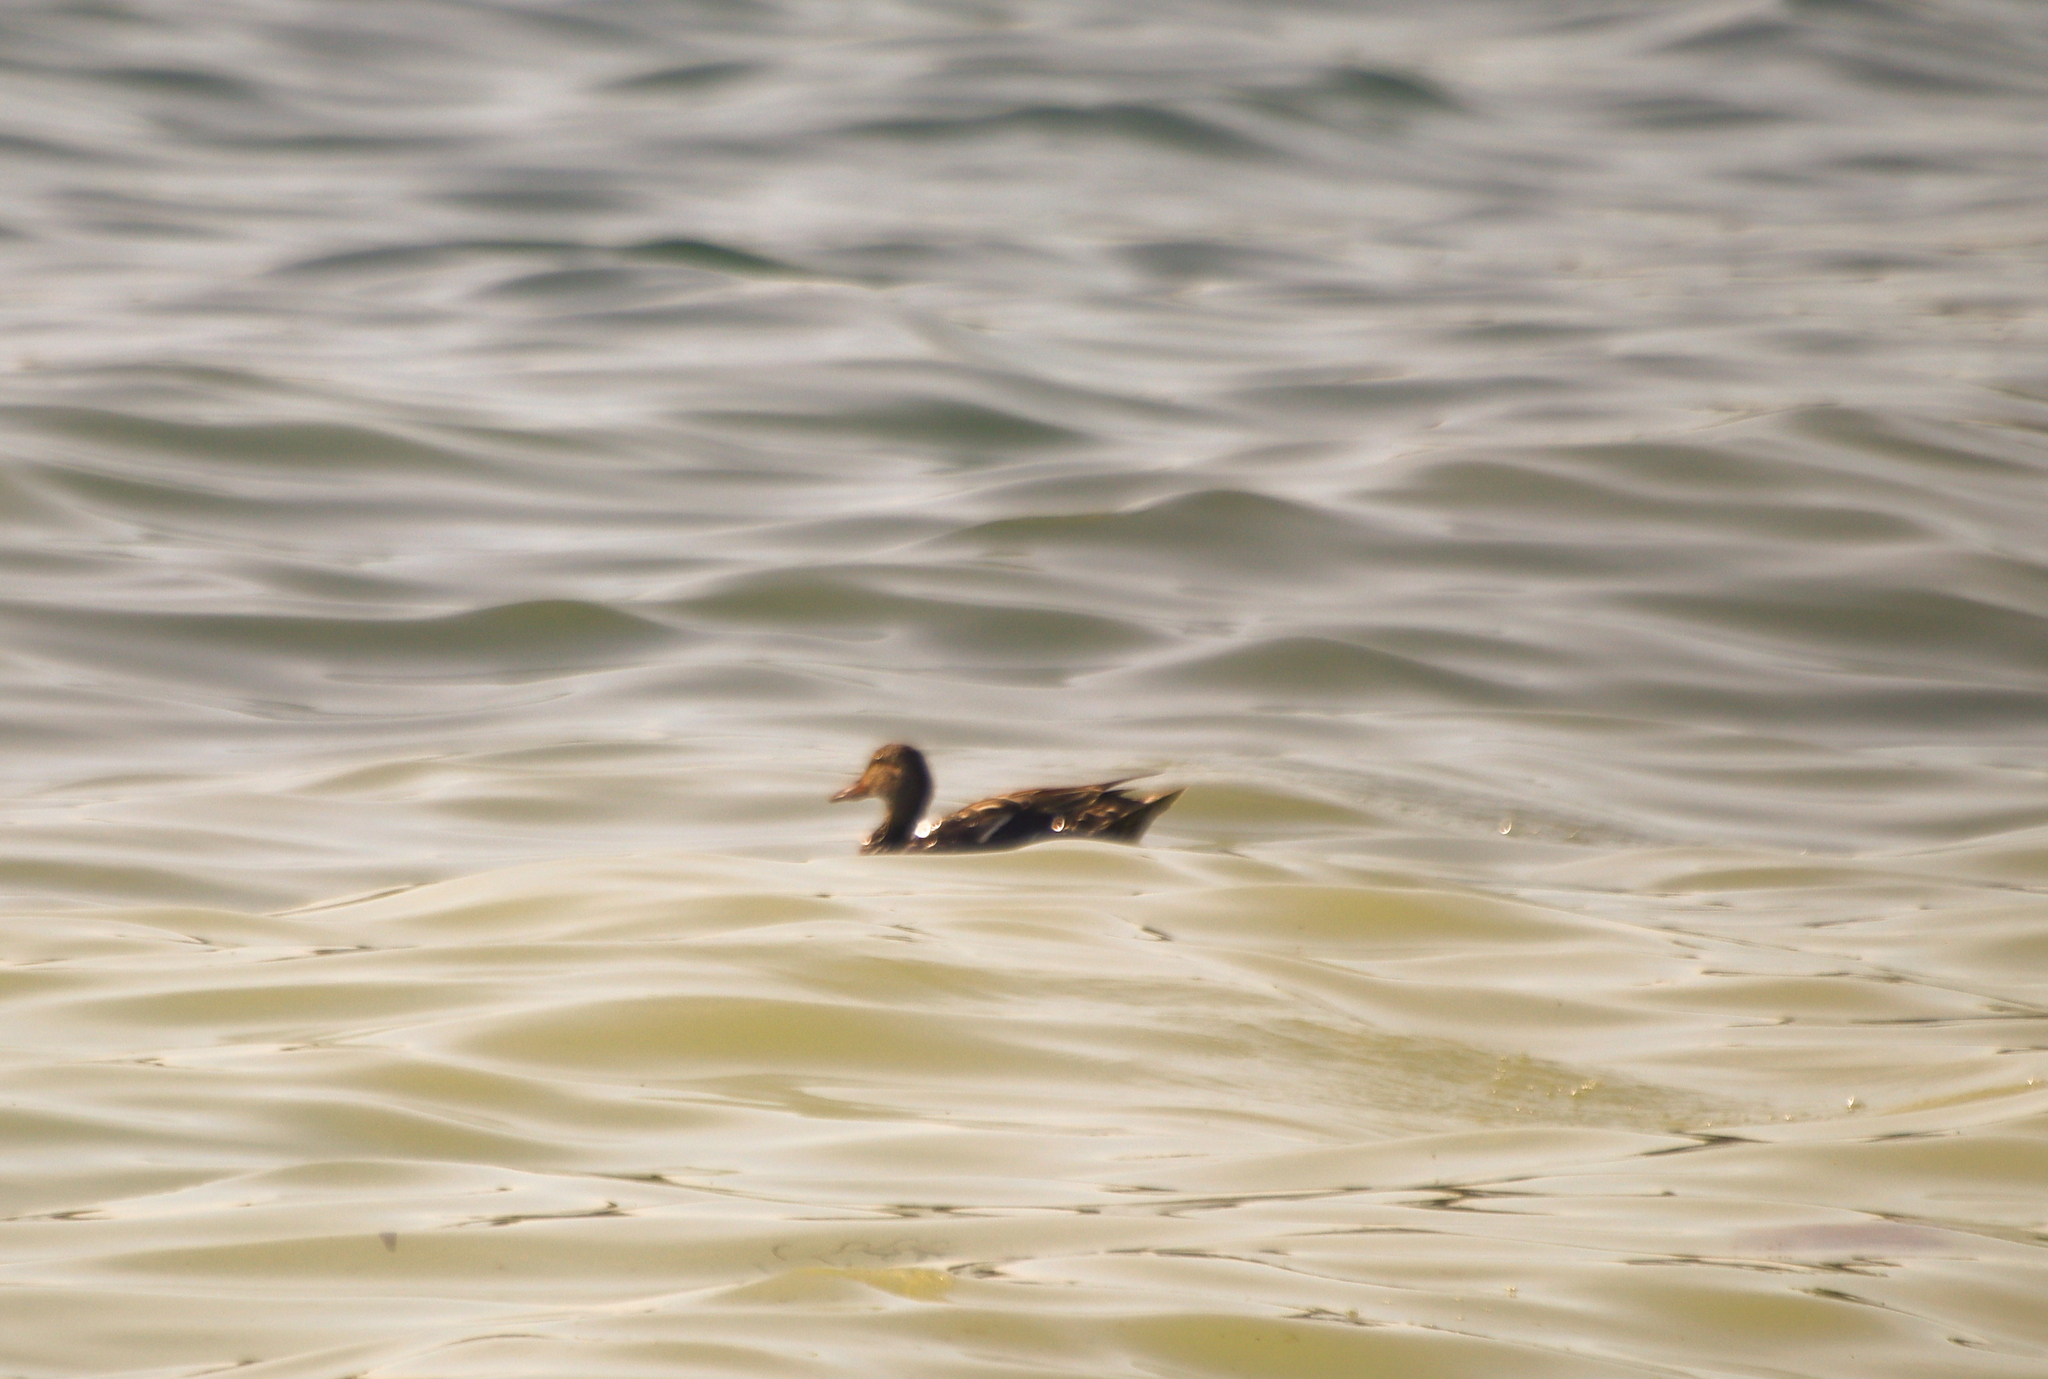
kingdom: Animalia
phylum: Chordata
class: Aves
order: Anseriformes
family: Anatidae
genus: Anas
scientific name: Anas platyrhynchos
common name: Mallard
